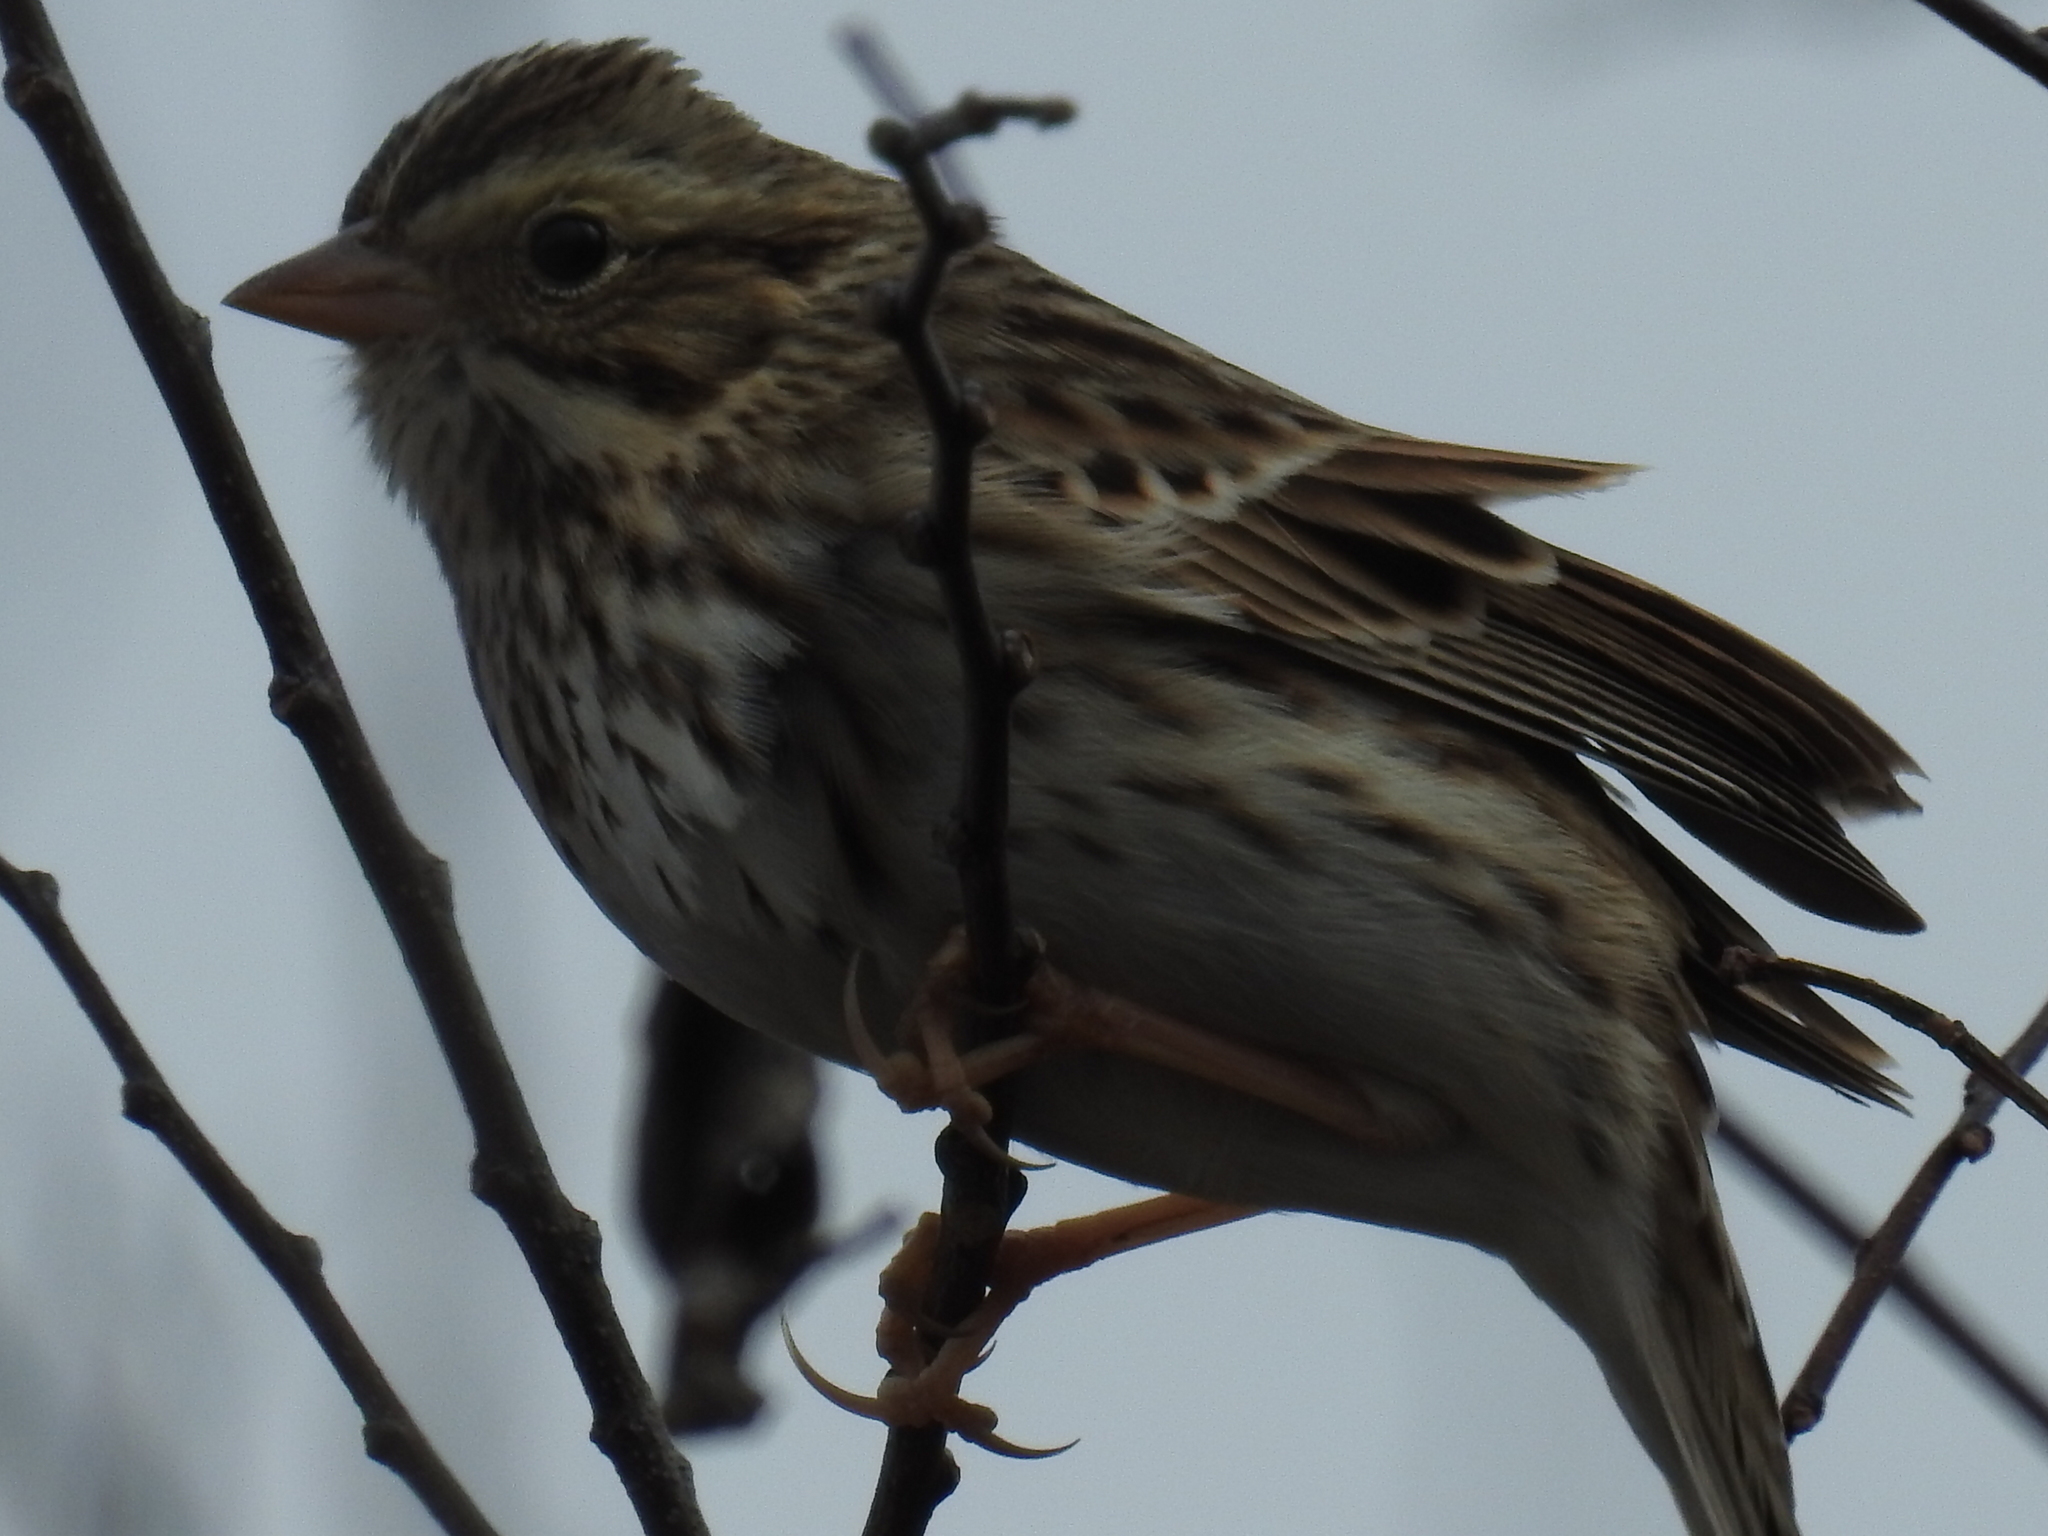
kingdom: Animalia
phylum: Chordata
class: Aves
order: Passeriformes
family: Passerellidae
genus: Passerculus
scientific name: Passerculus sandwichensis
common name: Savannah sparrow
